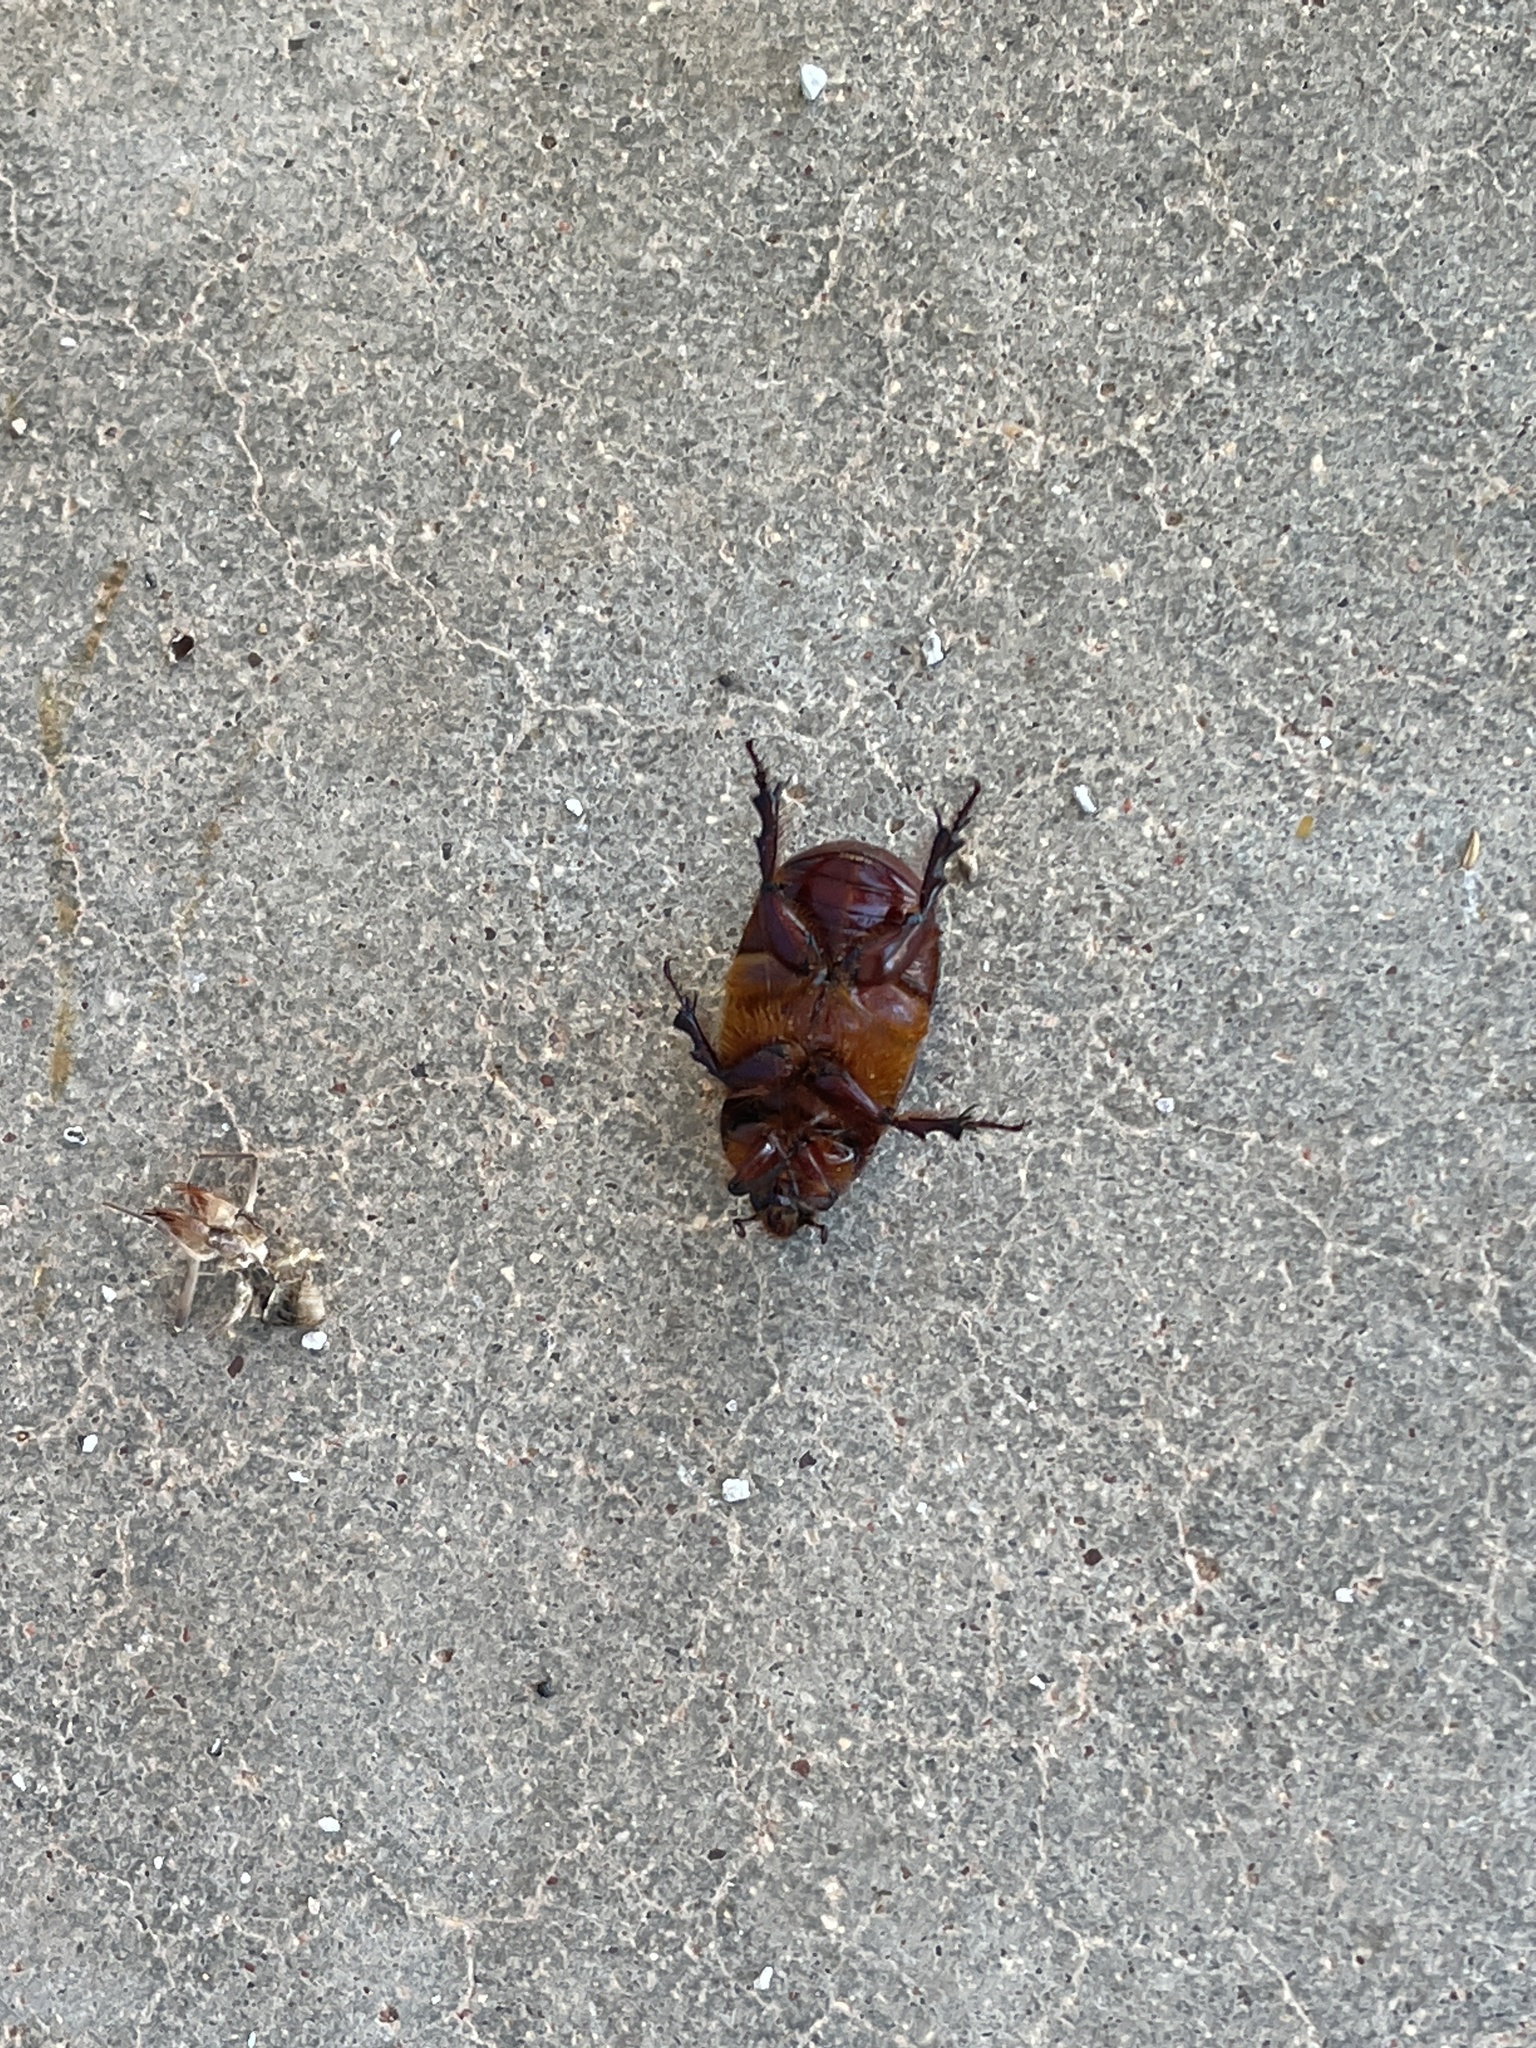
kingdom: Animalia
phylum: Arthropoda
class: Insecta
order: Coleoptera
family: Scarabaeidae
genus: Xyloryctes
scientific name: Xyloryctes thestalus
